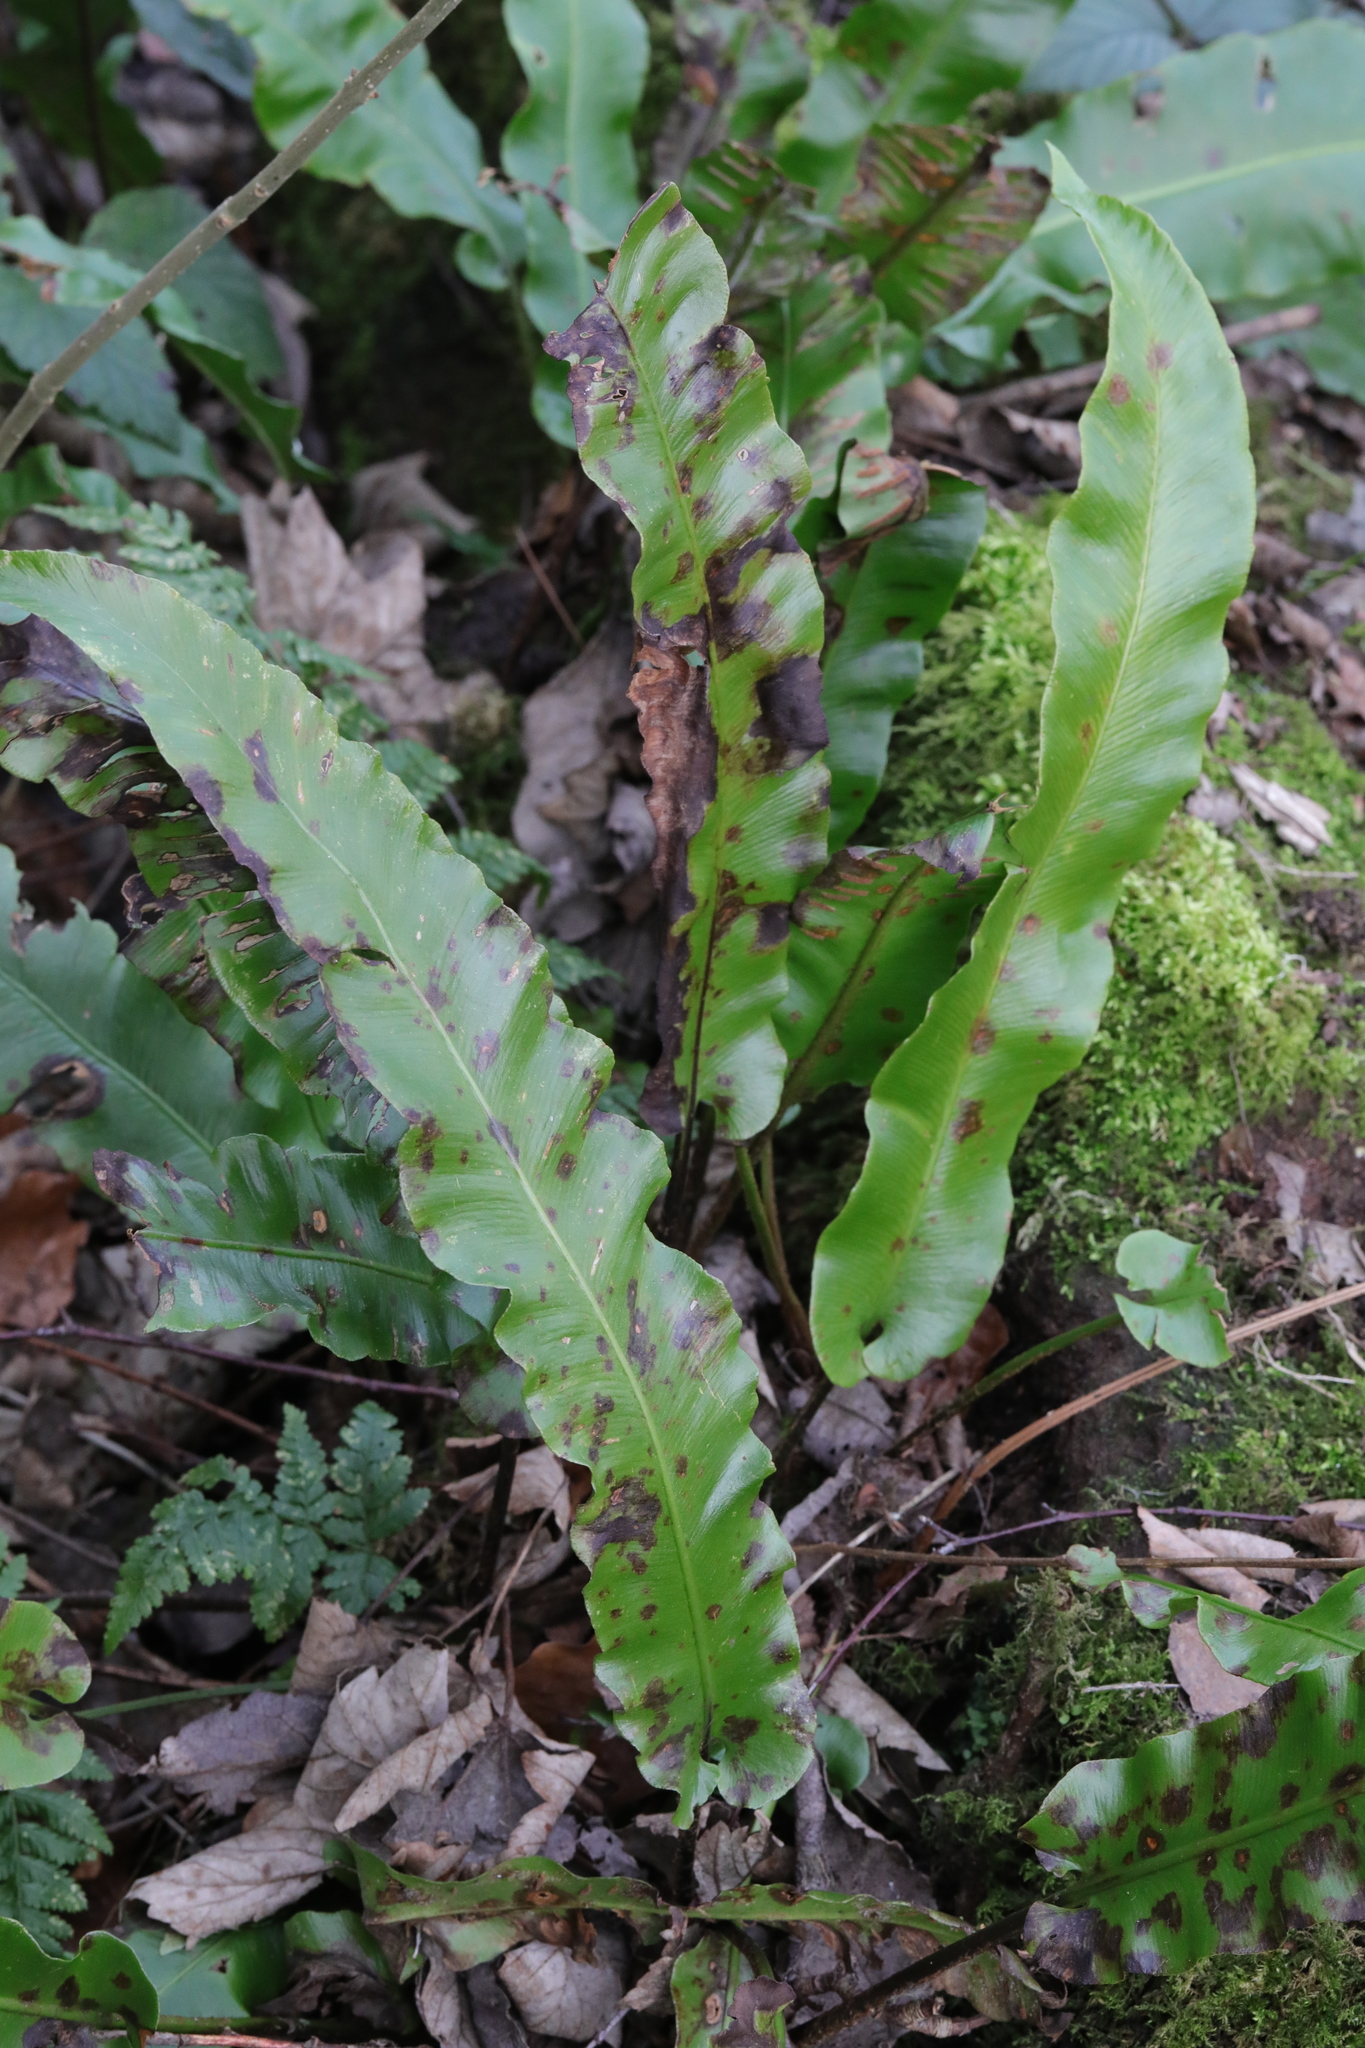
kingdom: Plantae
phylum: Tracheophyta
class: Polypodiopsida
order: Polypodiales
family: Aspleniaceae
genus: Asplenium
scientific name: Asplenium scolopendrium
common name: Hart's-tongue fern
